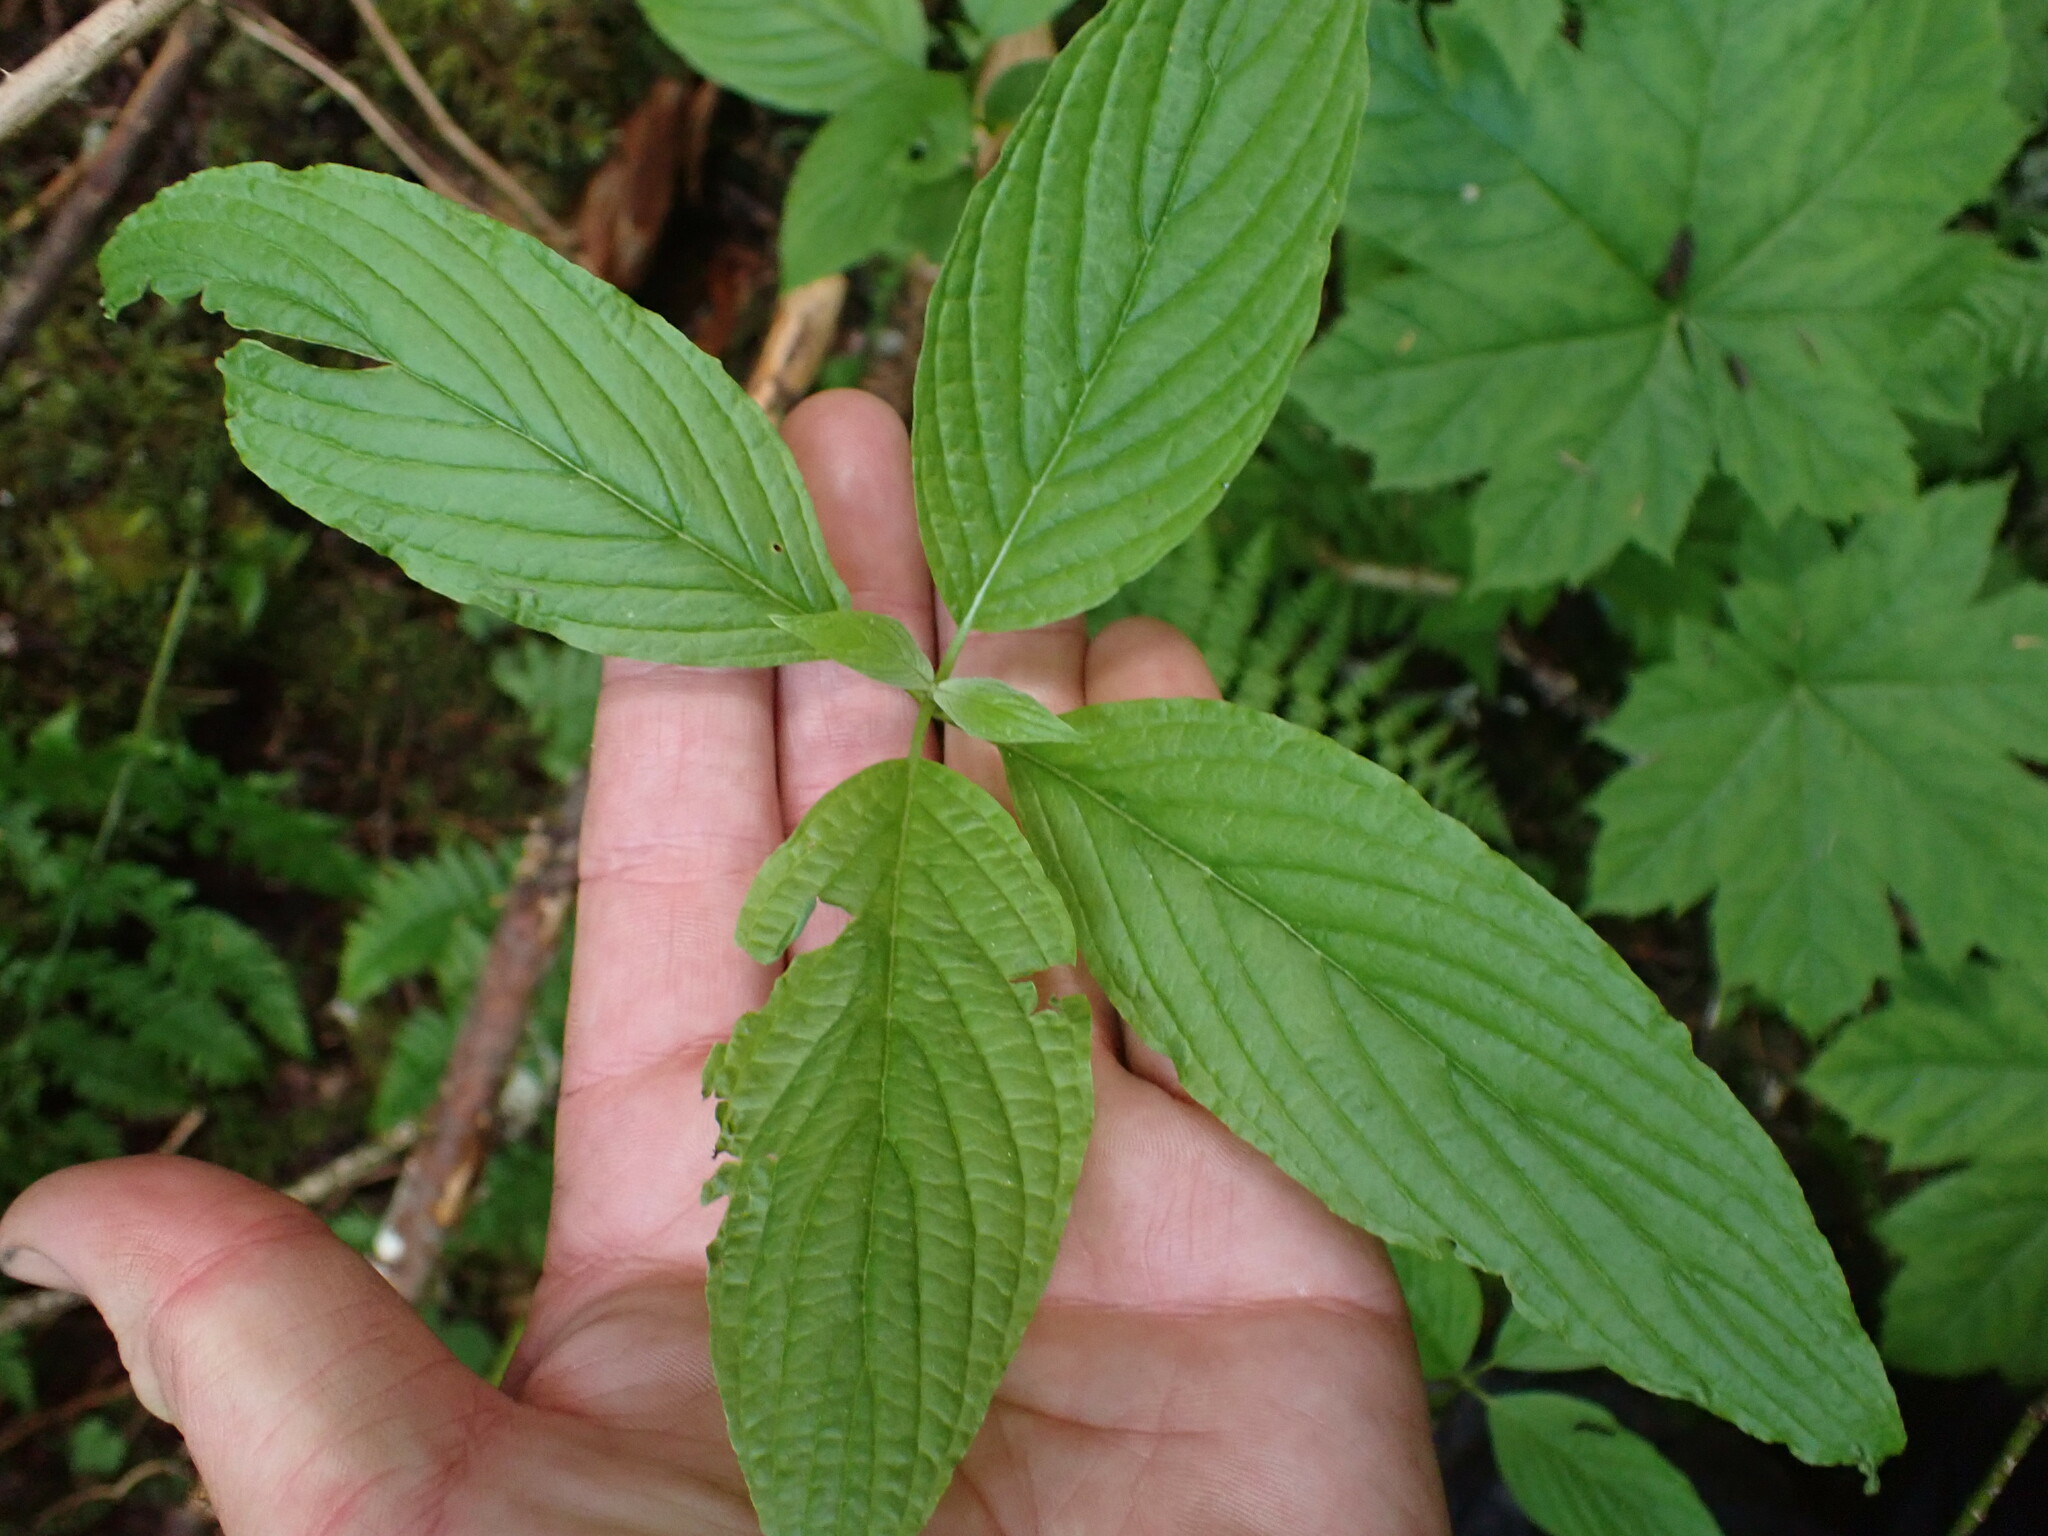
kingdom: Plantae
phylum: Tracheophyta
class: Magnoliopsida
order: Cornales
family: Cornaceae
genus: Cornus
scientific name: Cornus sericea
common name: Red-osier dogwood
